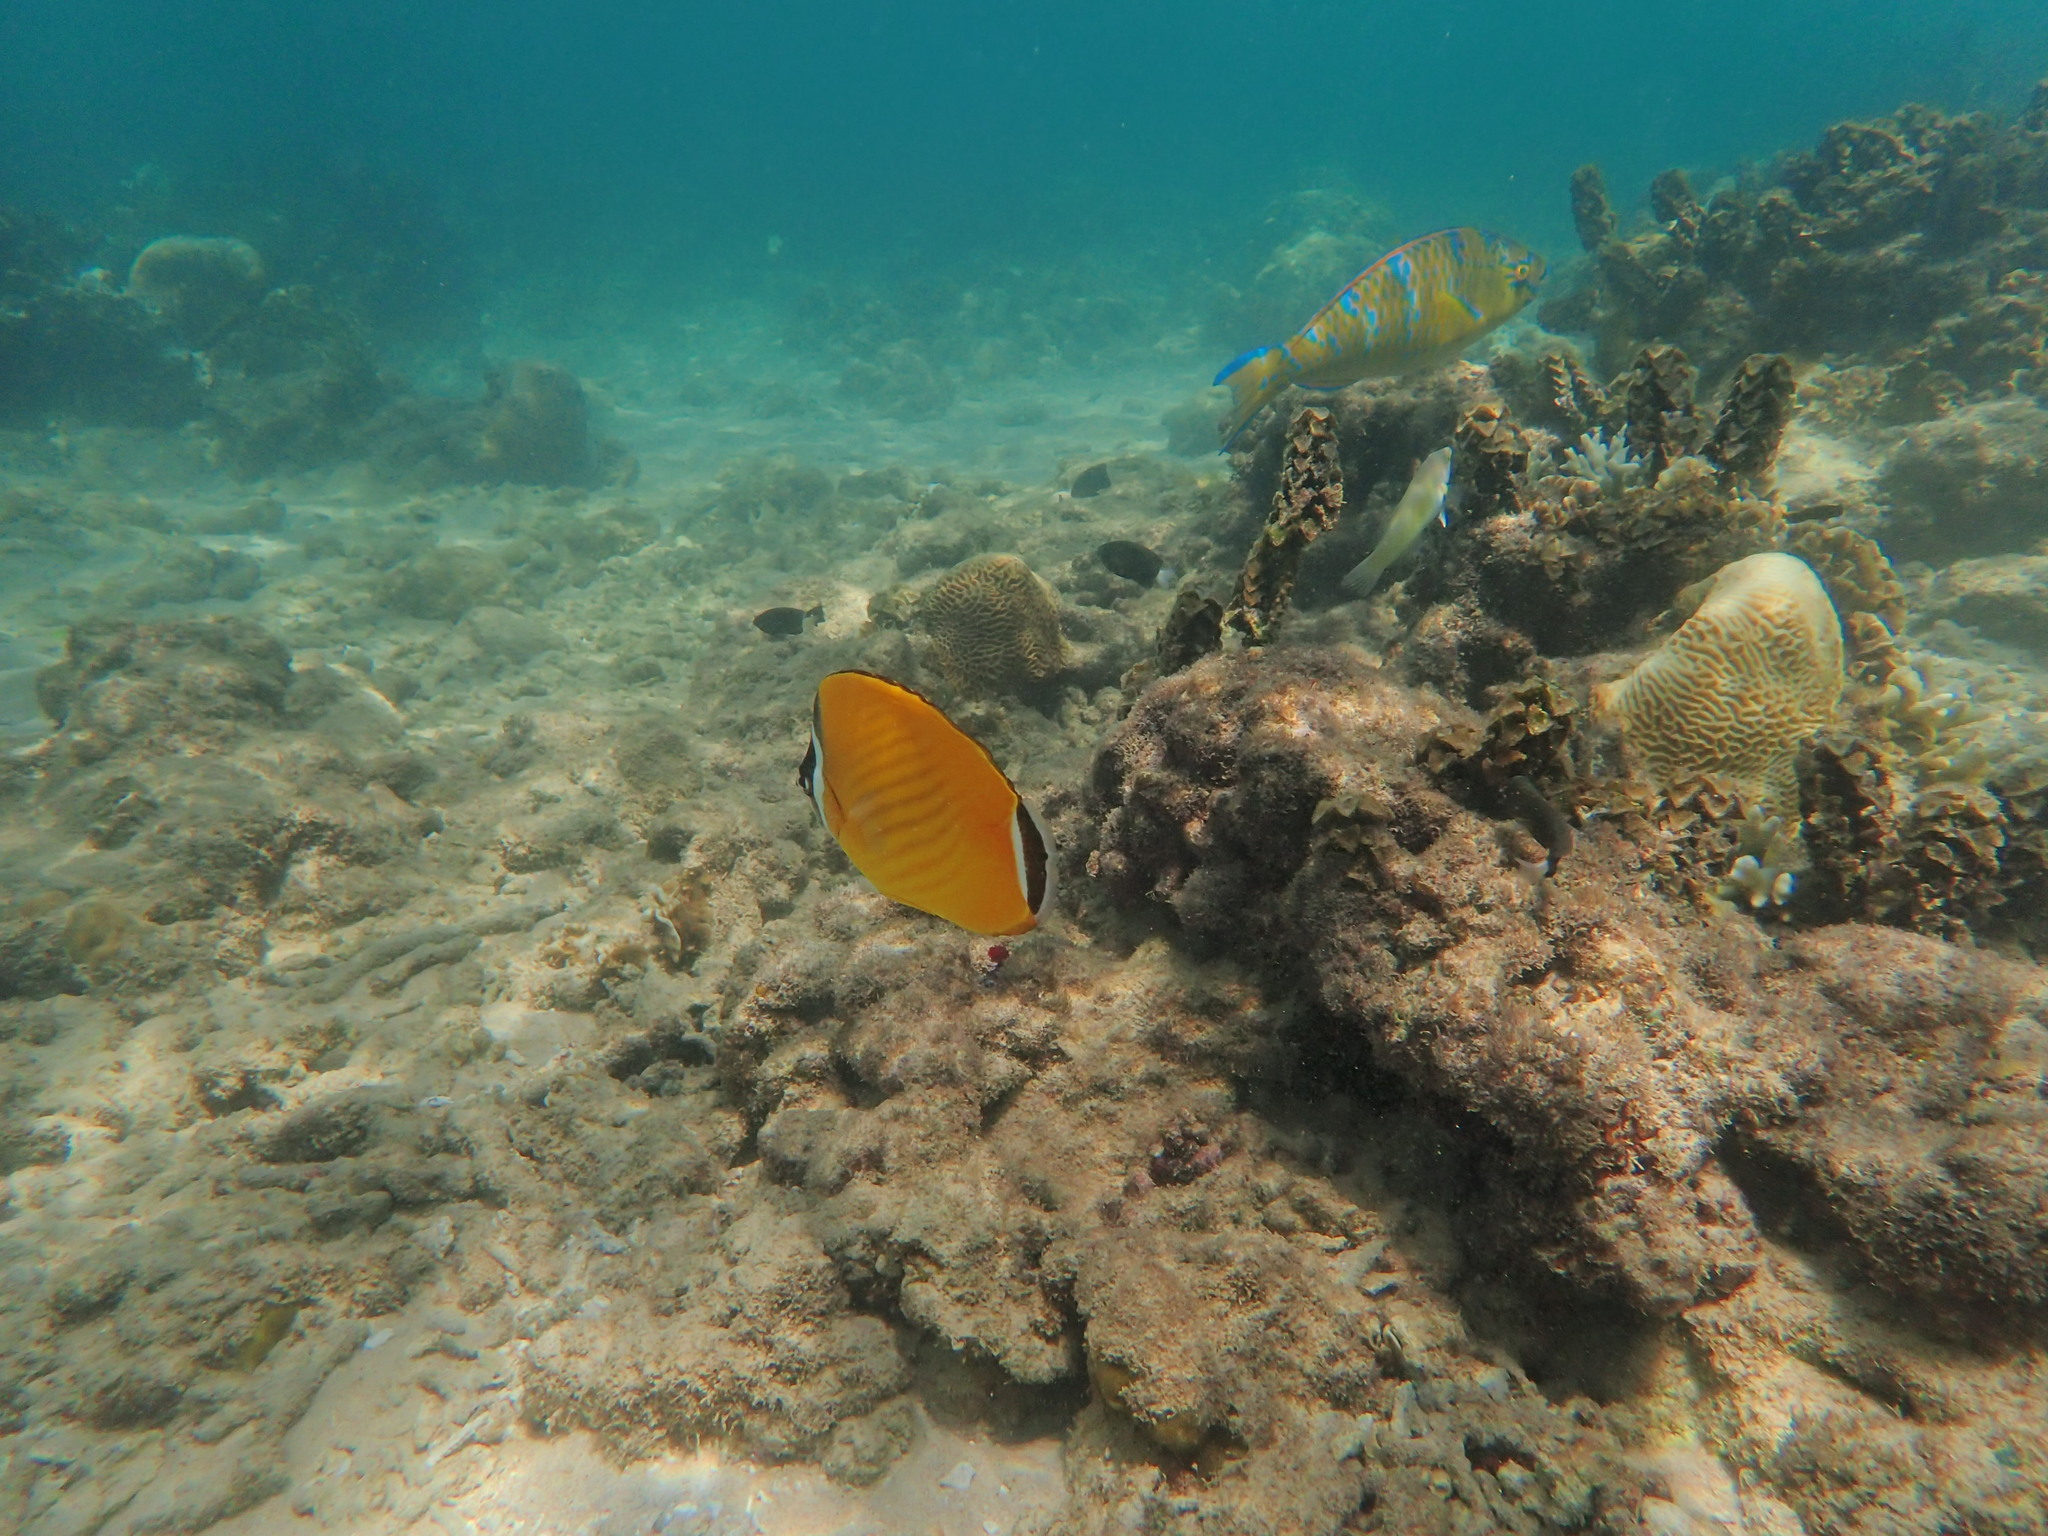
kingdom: Animalia
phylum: Chordata
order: Perciformes
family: Chaetodontidae
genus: Chaetodon
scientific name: Chaetodon wiebeli
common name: Butterflyfish
